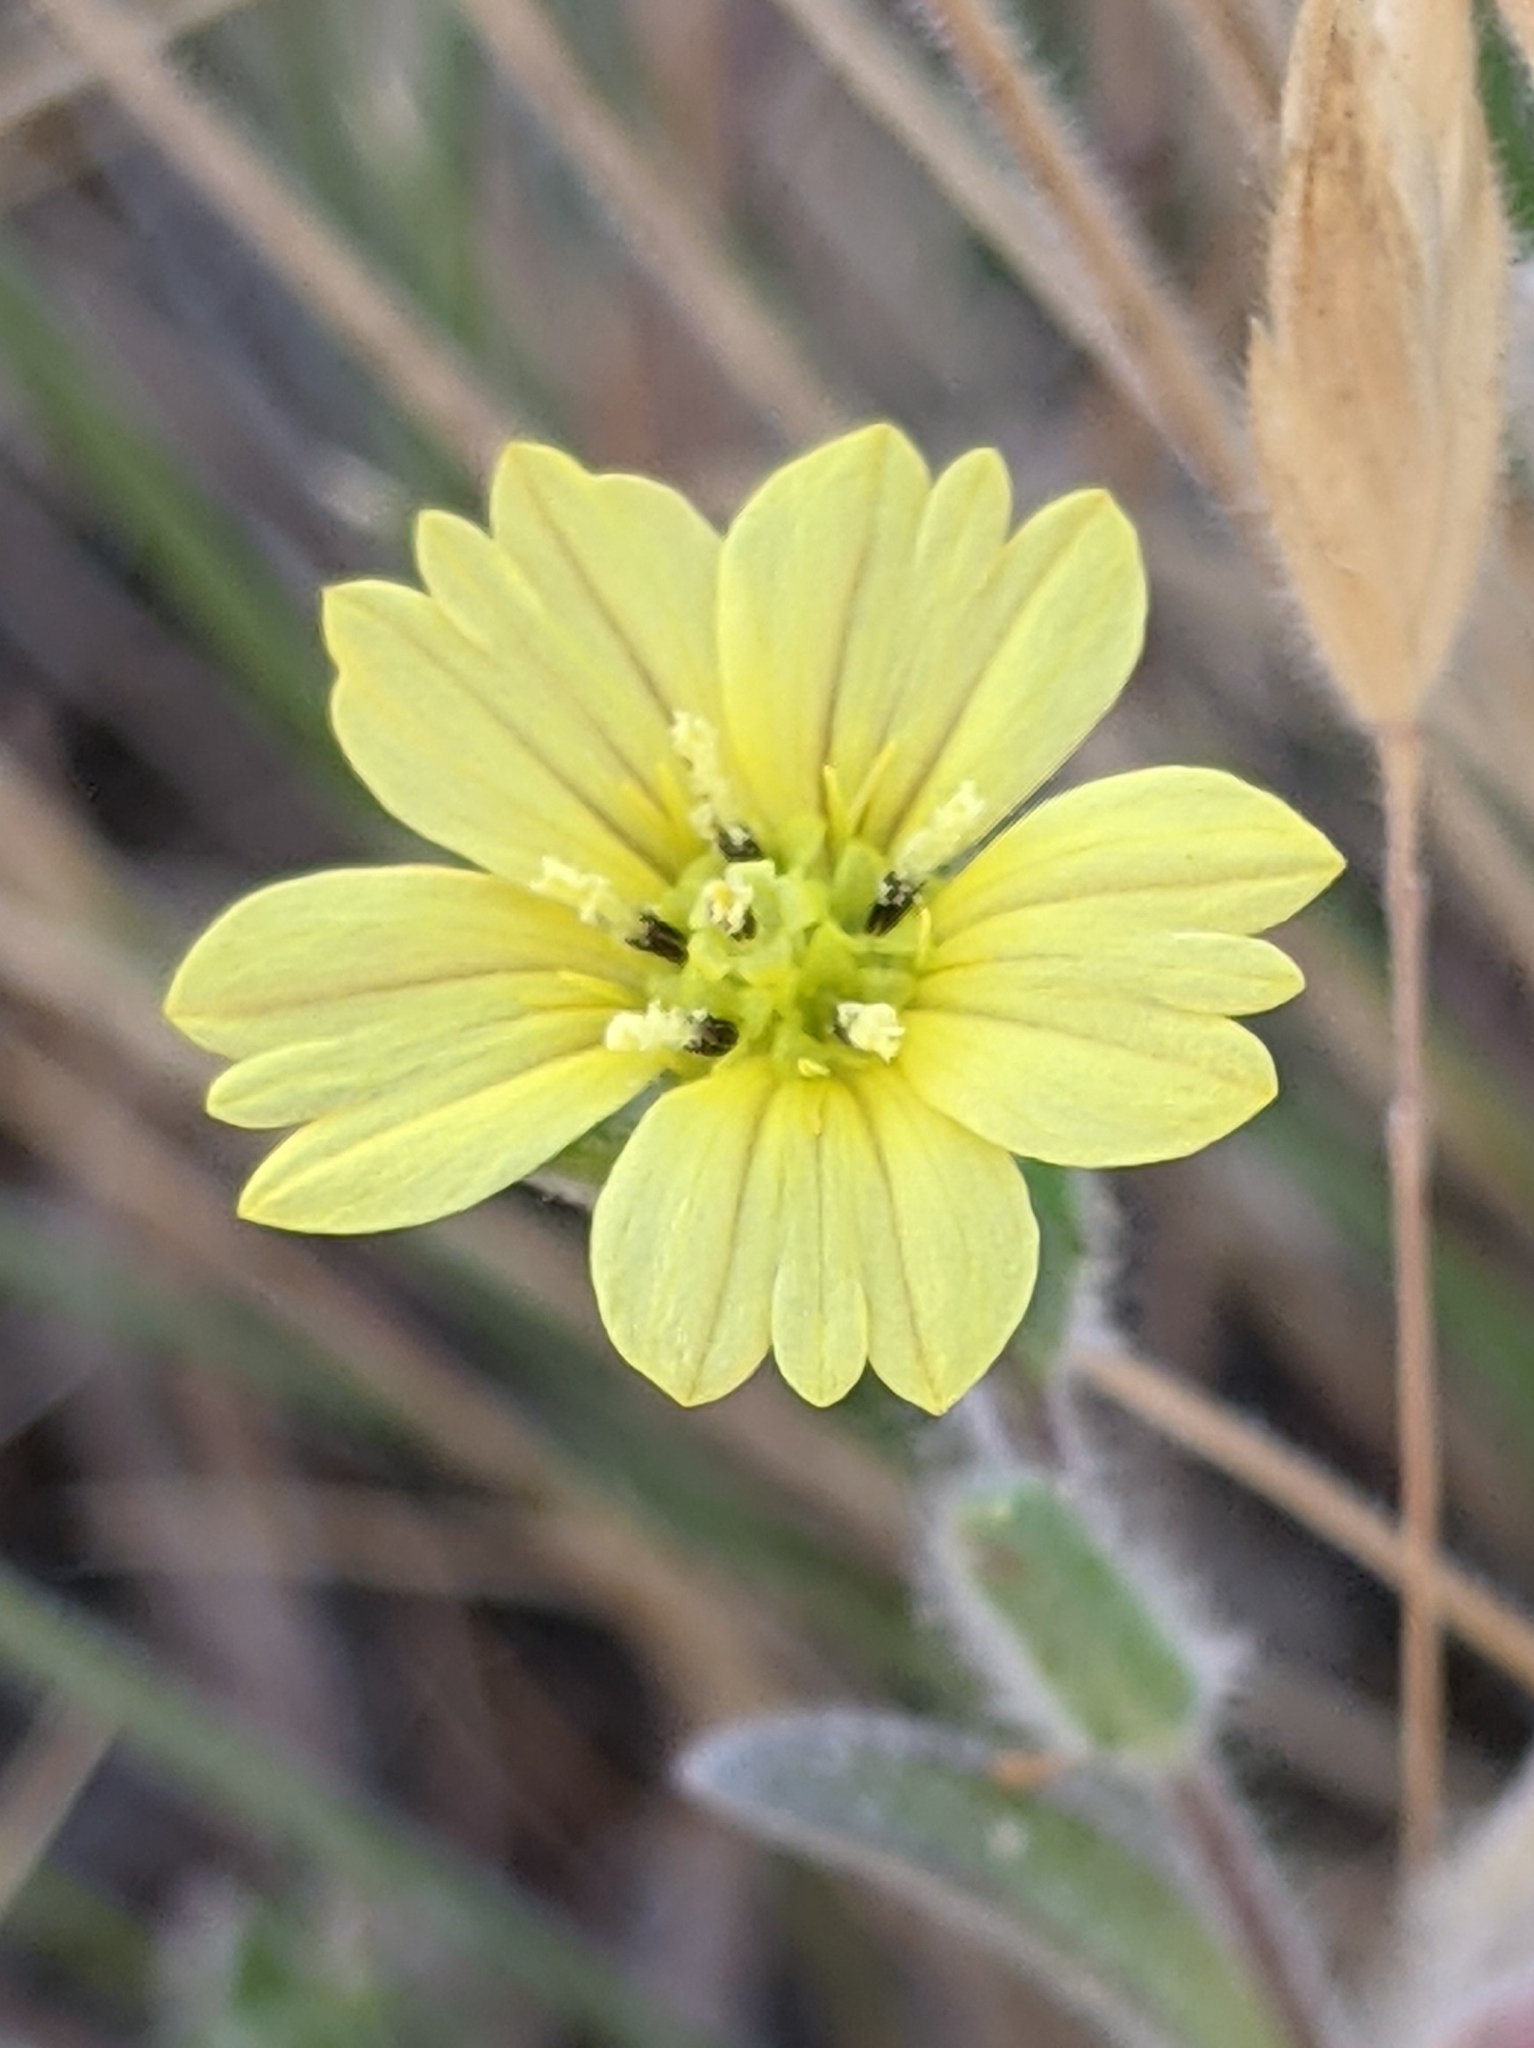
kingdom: Plantae
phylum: Tracheophyta
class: Magnoliopsida
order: Asterales
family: Asteraceae
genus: Lagophylla
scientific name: Lagophylla ramosissima
